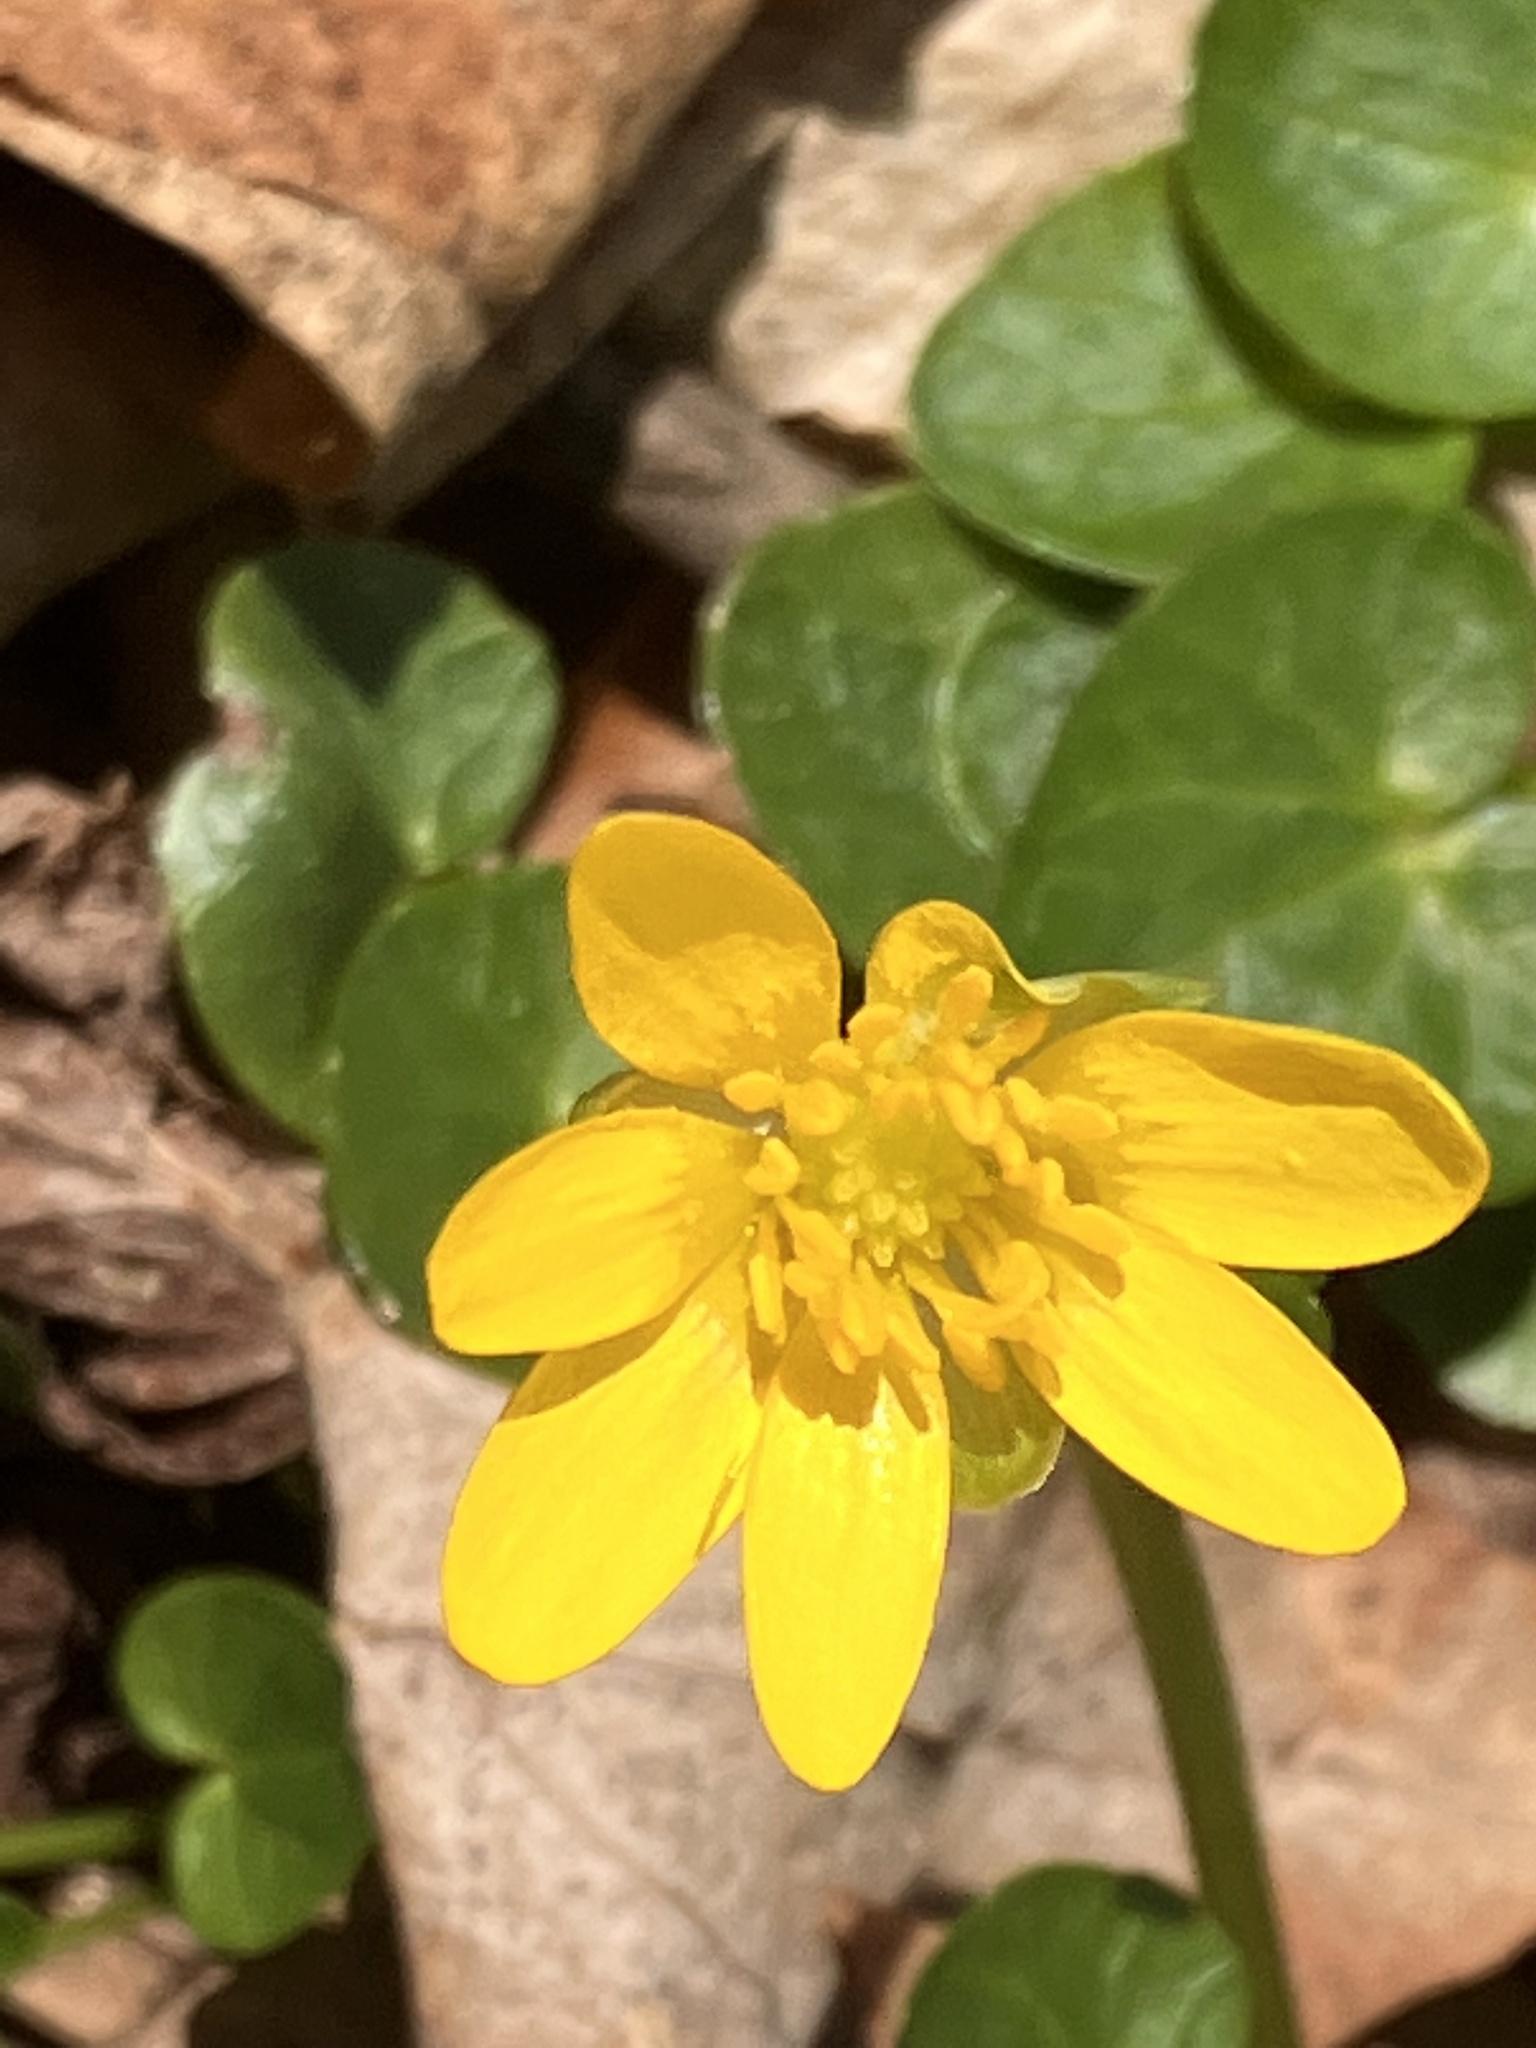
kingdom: Plantae
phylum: Tracheophyta
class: Magnoliopsida
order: Ranunculales
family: Ranunculaceae
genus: Ficaria
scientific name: Ficaria verna
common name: Lesser celandine
